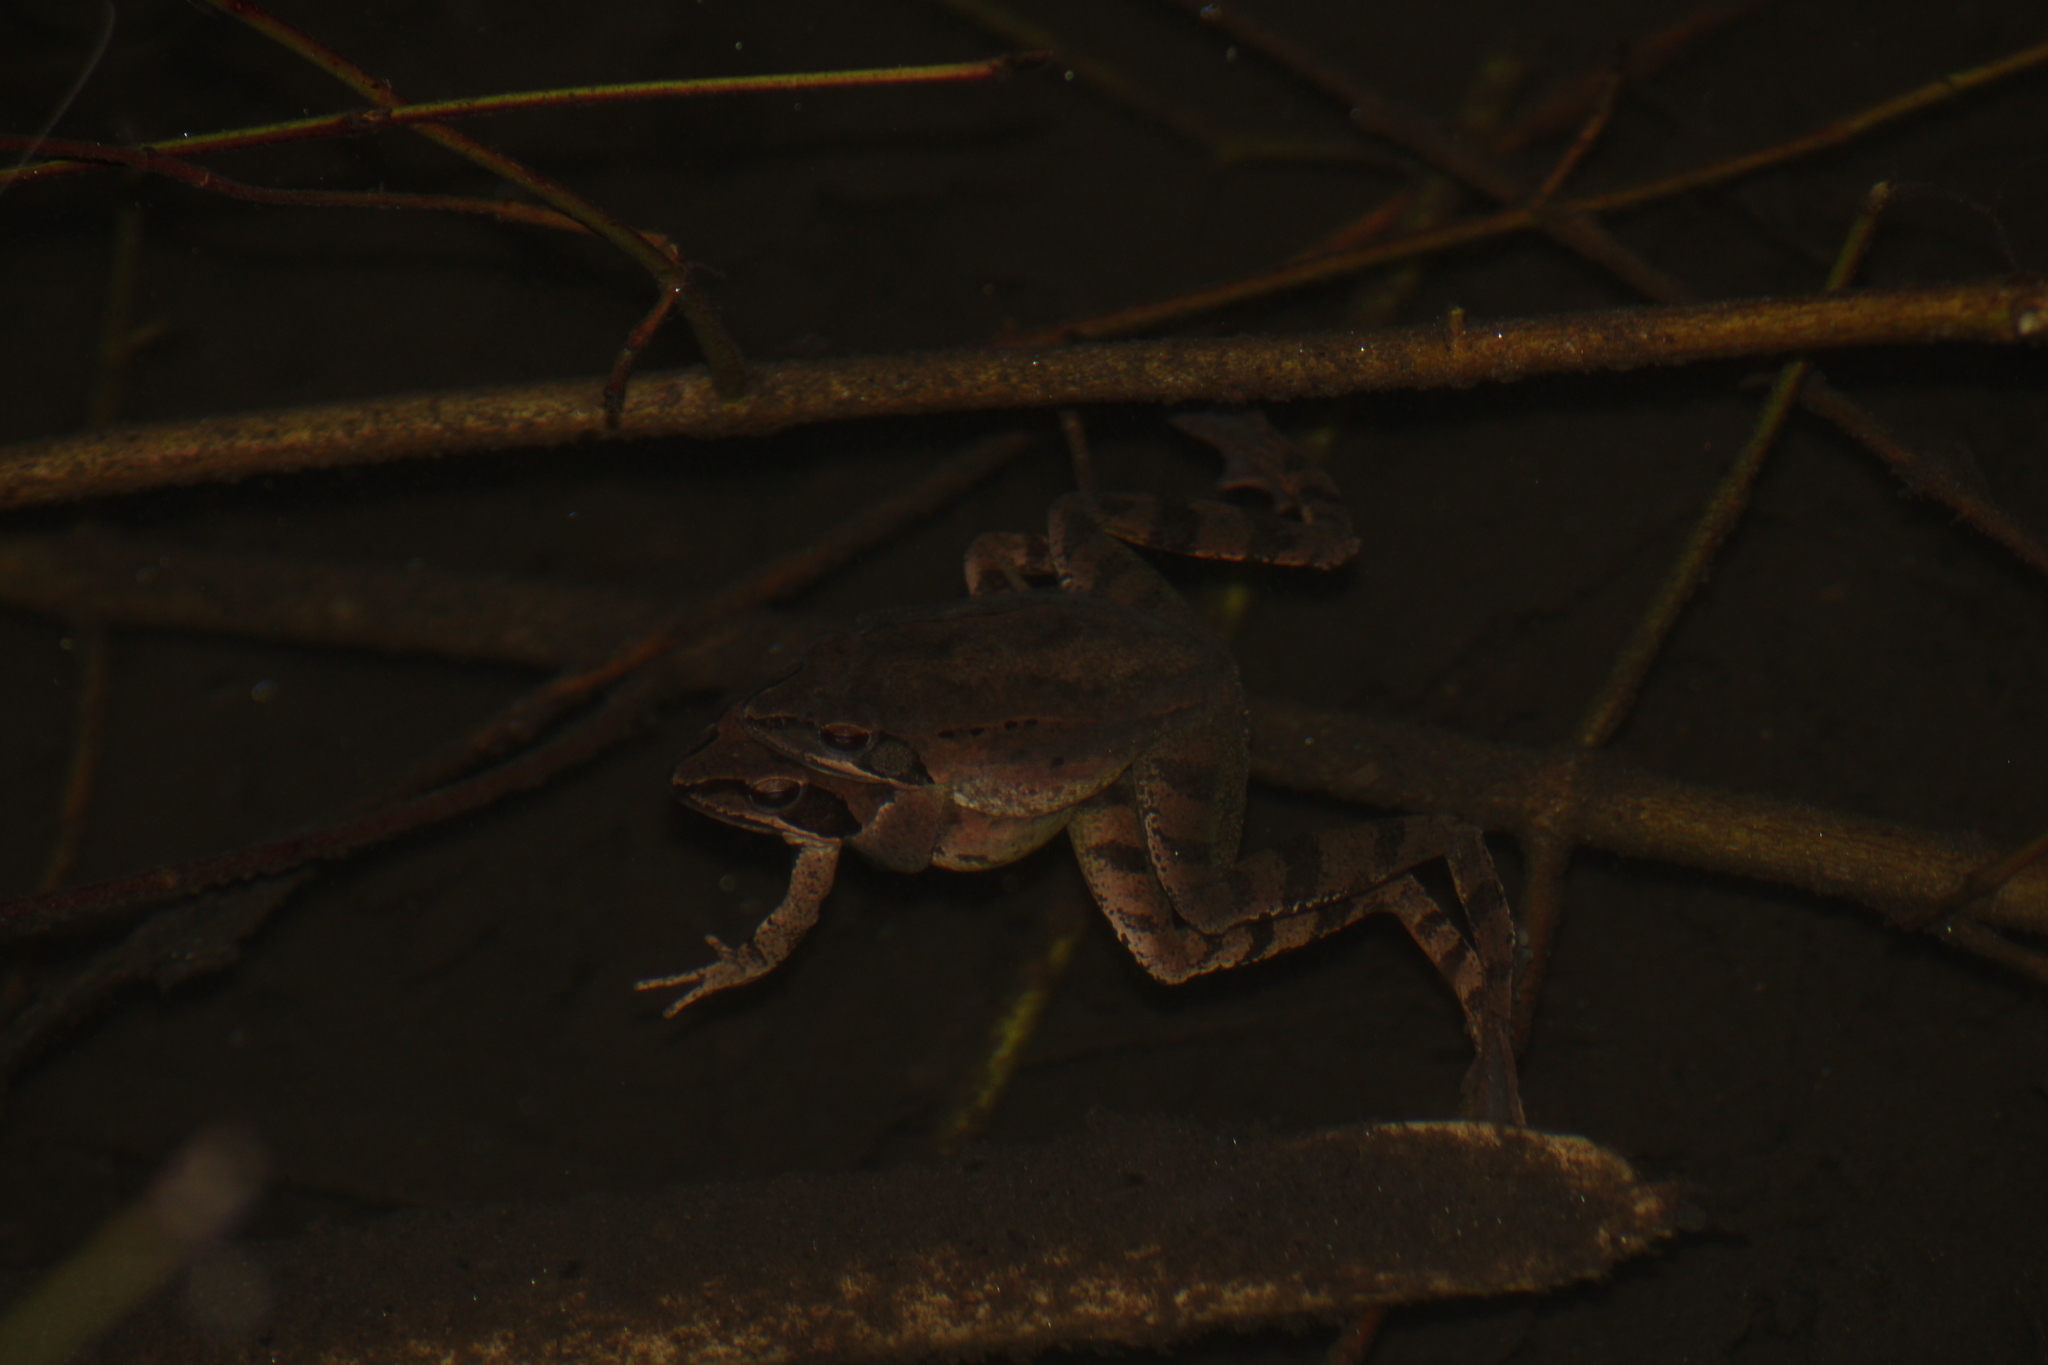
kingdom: Animalia
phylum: Chordata
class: Amphibia
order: Anura
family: Ranidae
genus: Rana
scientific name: Rana dalmatina
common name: Agile frog
